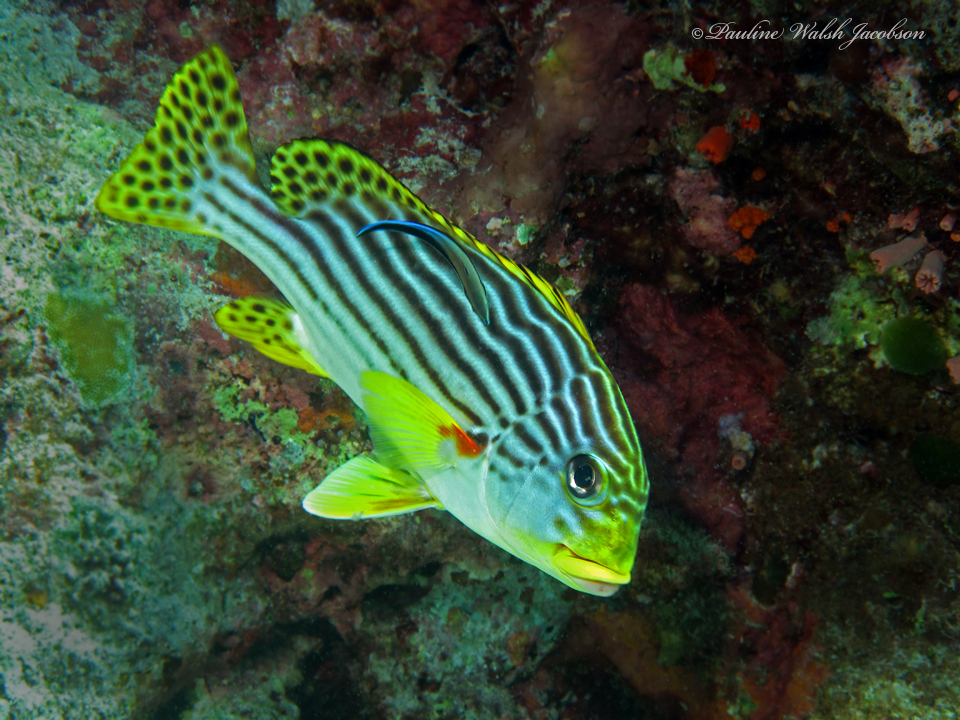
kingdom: Animalia
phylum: Chordata
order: Perciformes
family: Haemulidae
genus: Plectorhinchus
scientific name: Plectorhinchus vittatus
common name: Oriental sweetlips
